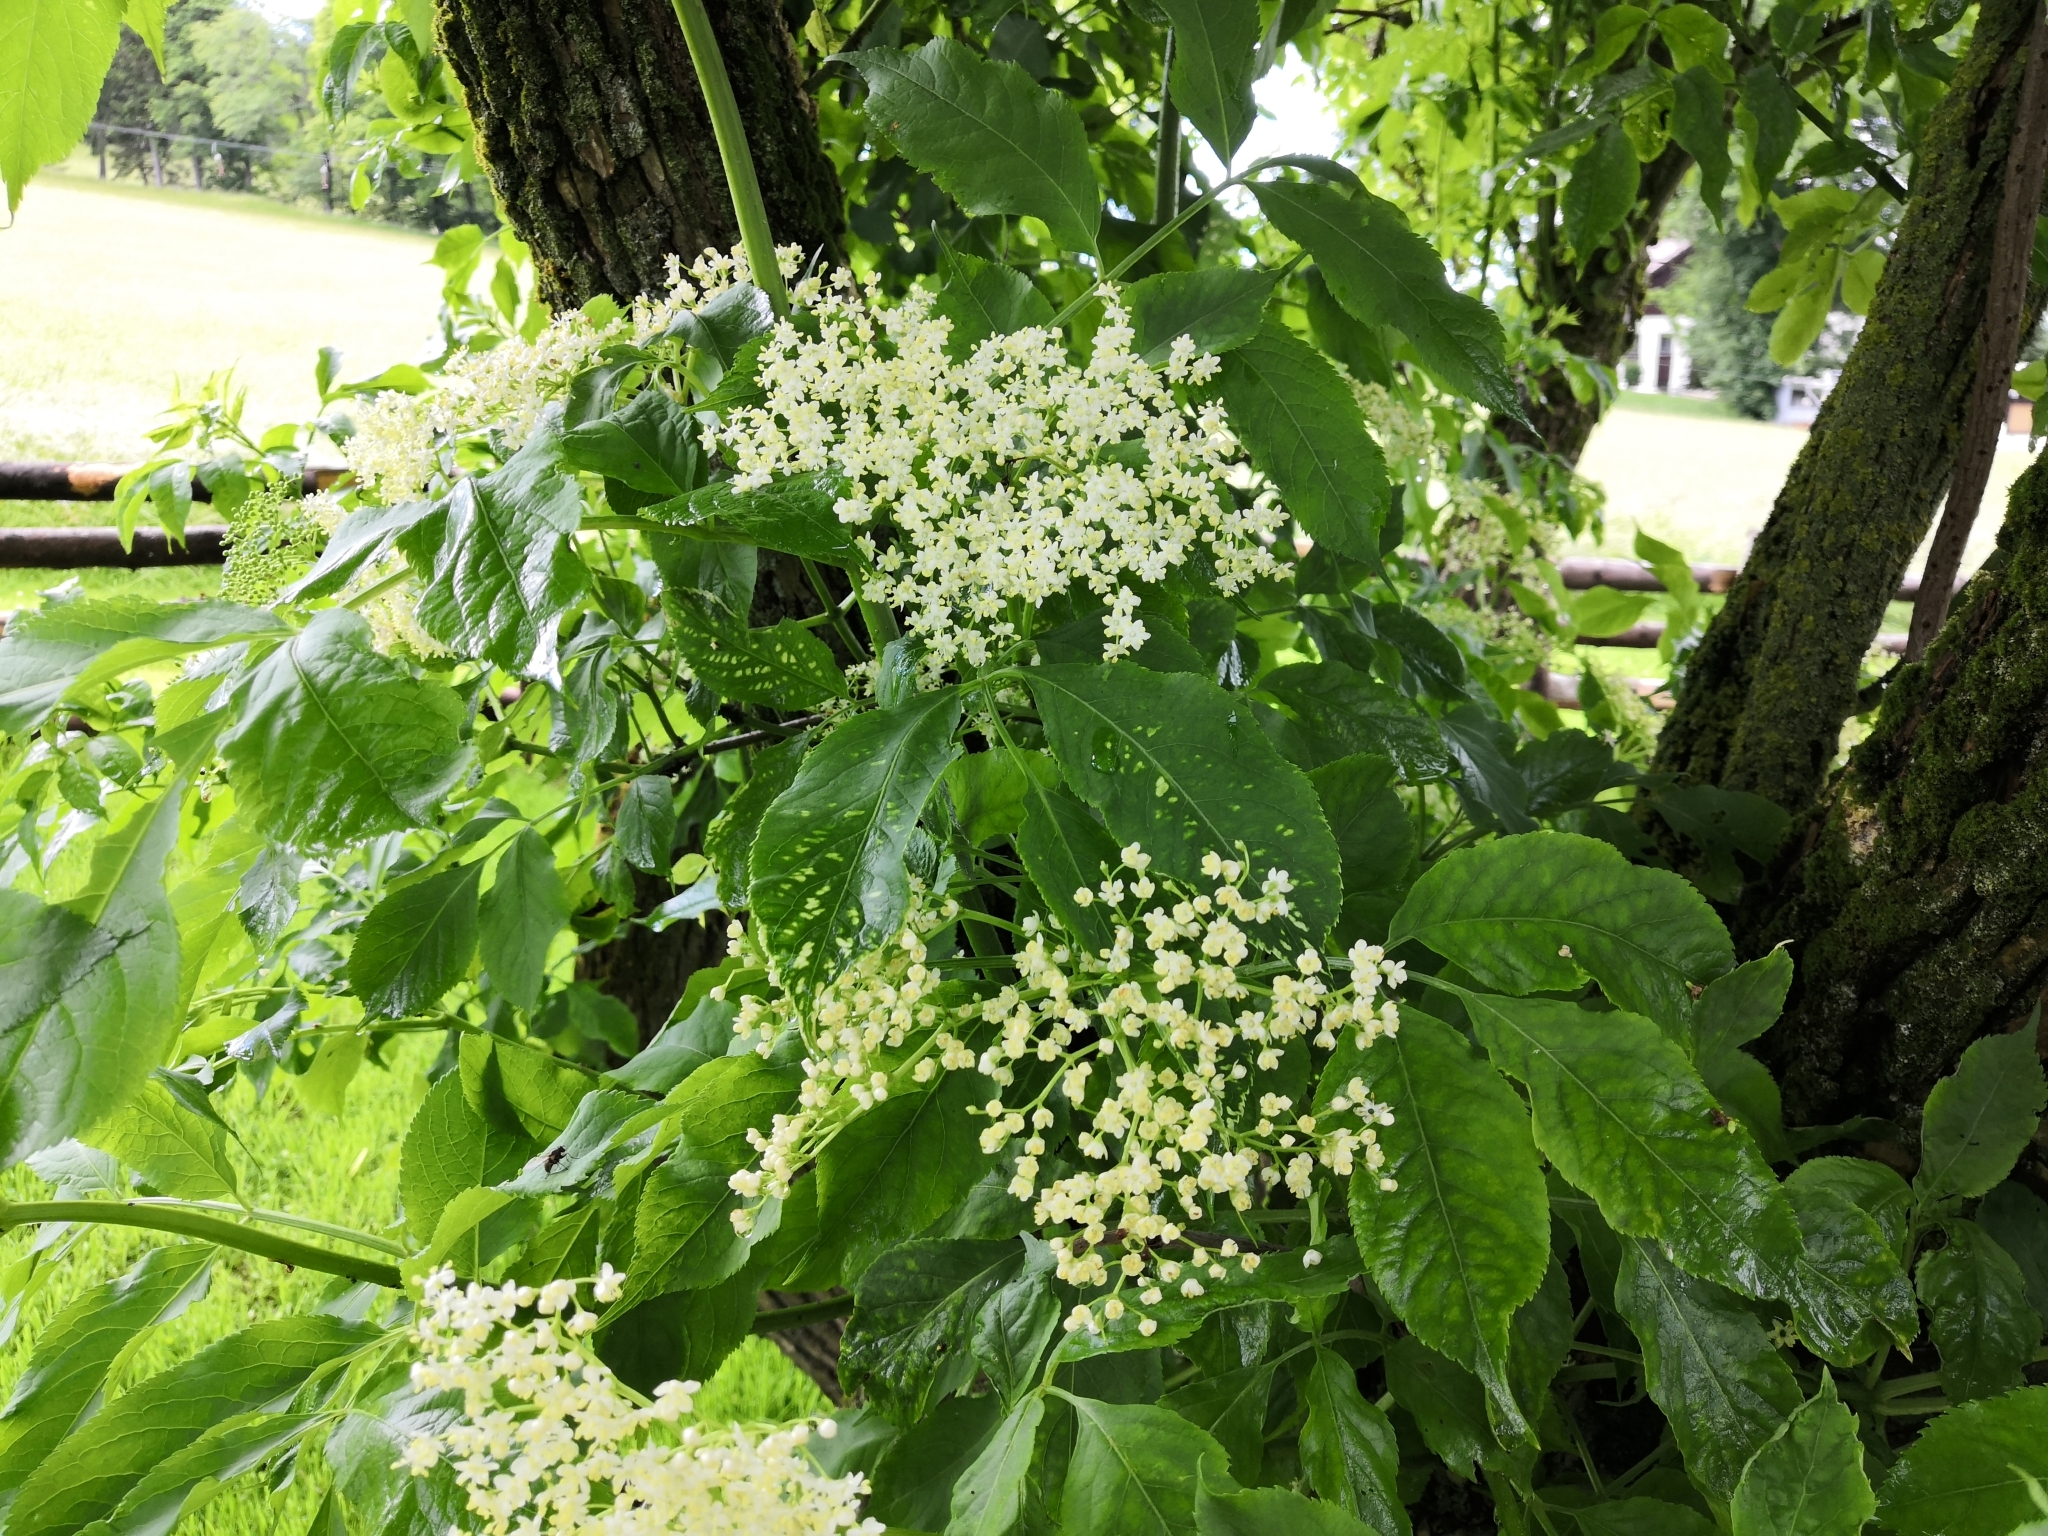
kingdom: Plantae
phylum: Tracheophyta
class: Magnoliopsida
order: Dipsacales
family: Viburnaceae
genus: Sambucus
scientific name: Sambucus nigra
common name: Elder
